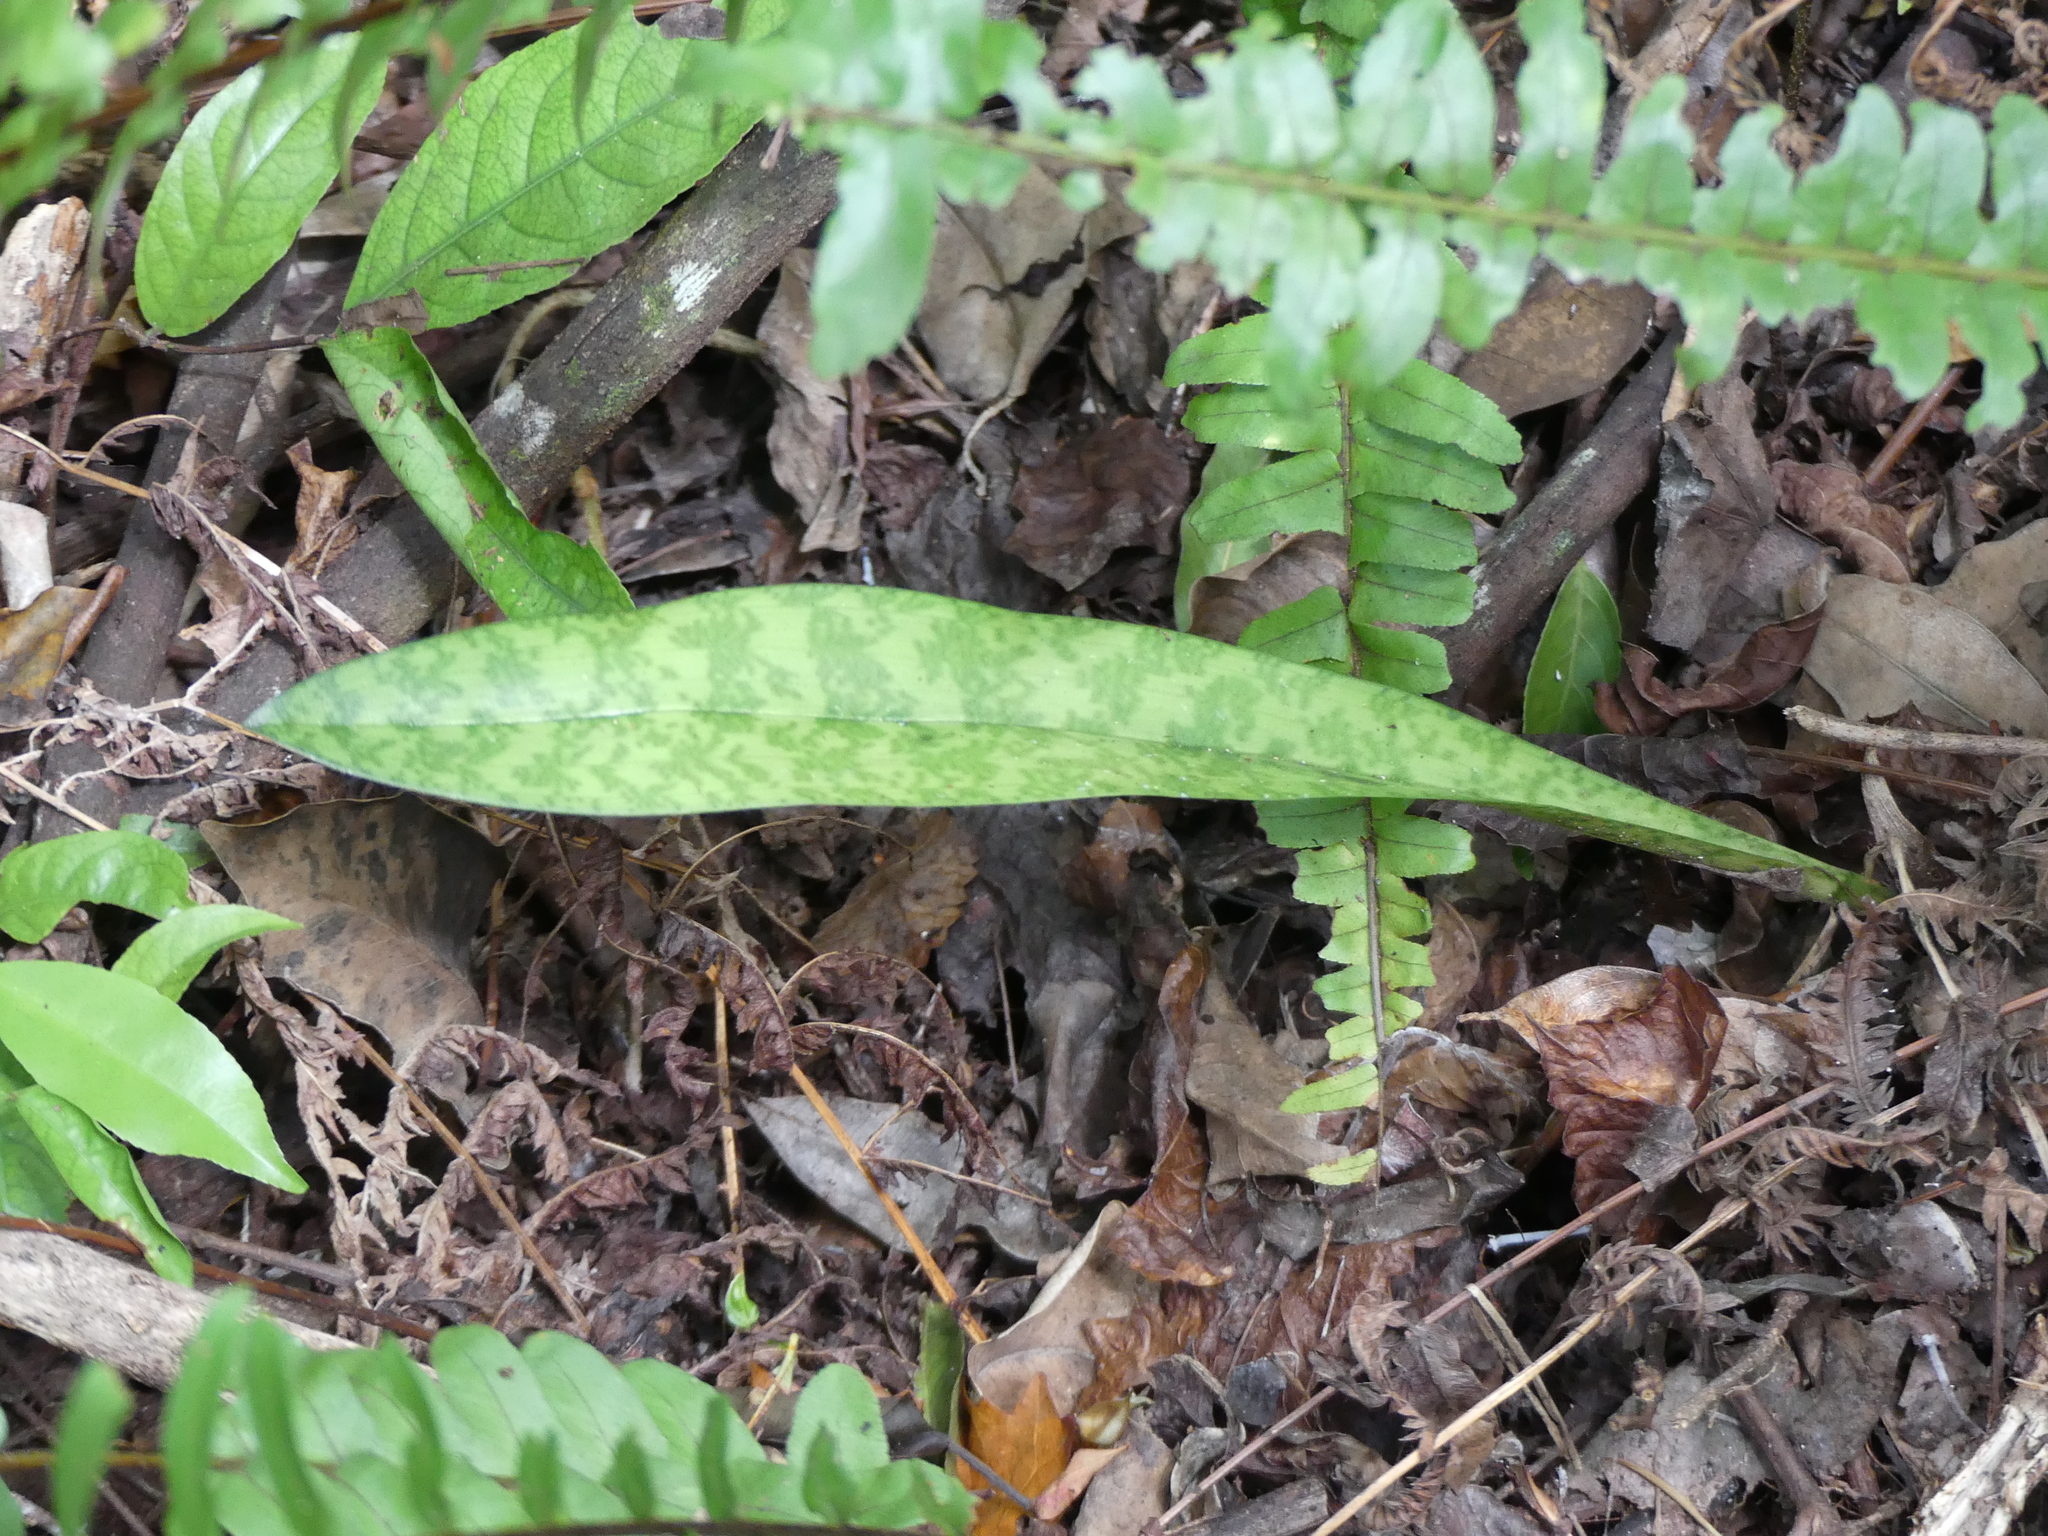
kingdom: Plantae
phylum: Tracheophyta
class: Liliopsida
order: Asparagales
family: Orchidaceae
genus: Eulophia
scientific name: Eulophia maculata
